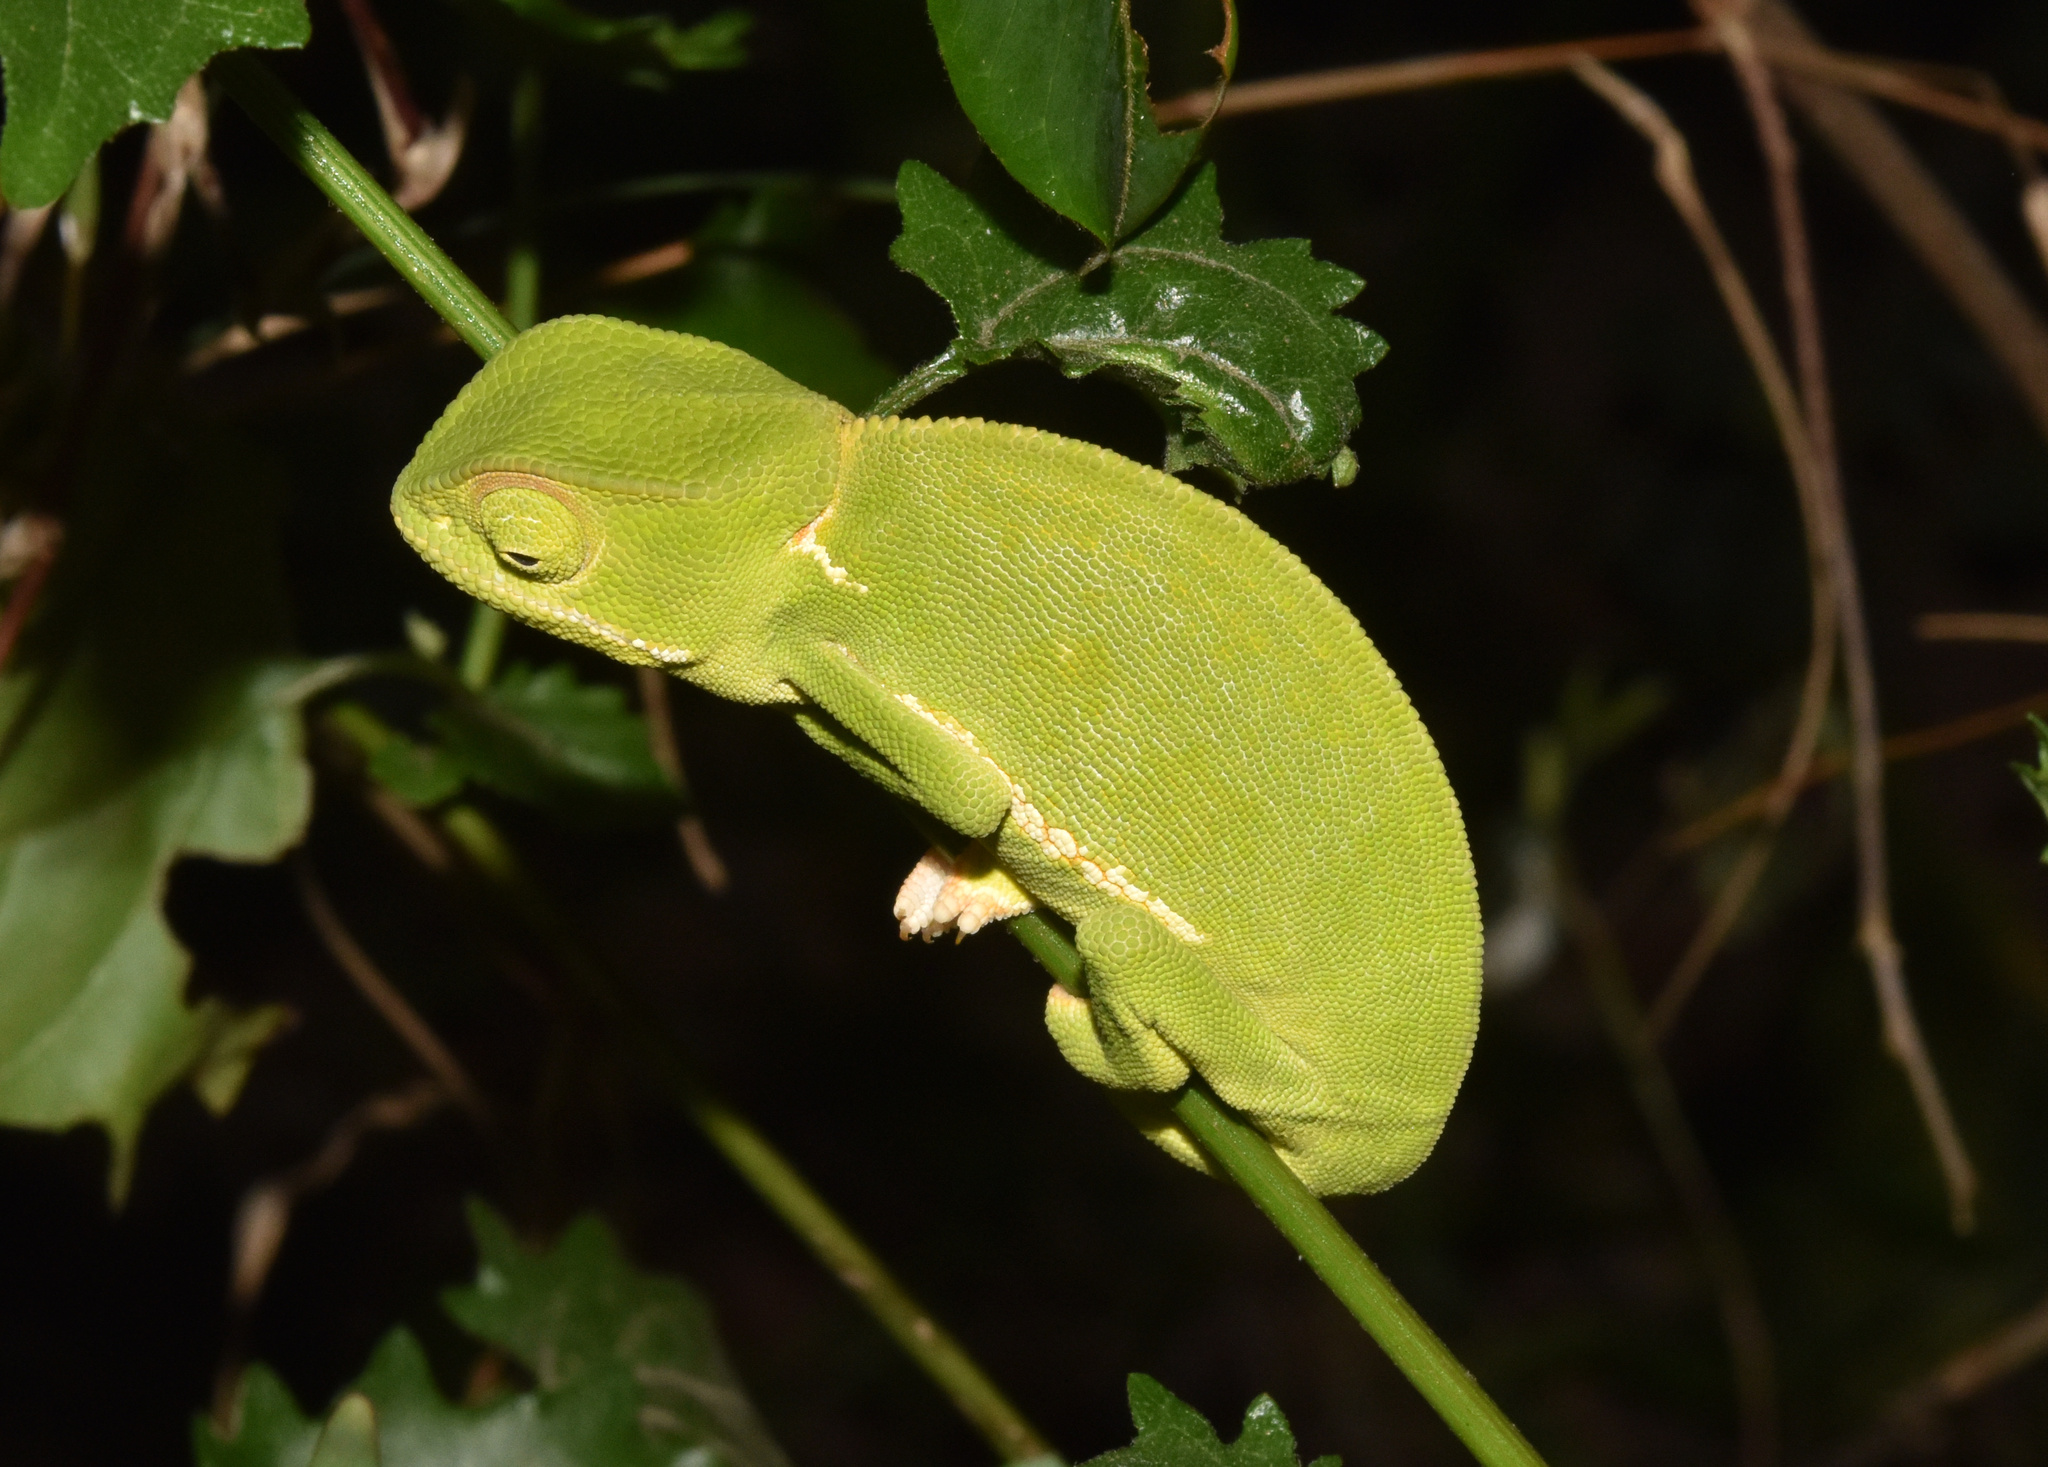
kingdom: Animalia
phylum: Chordata
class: Squamata
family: Chamaeleonidae
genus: Chamaeleo
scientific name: Chamaeleo dilepis
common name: Flapneck chameleon
